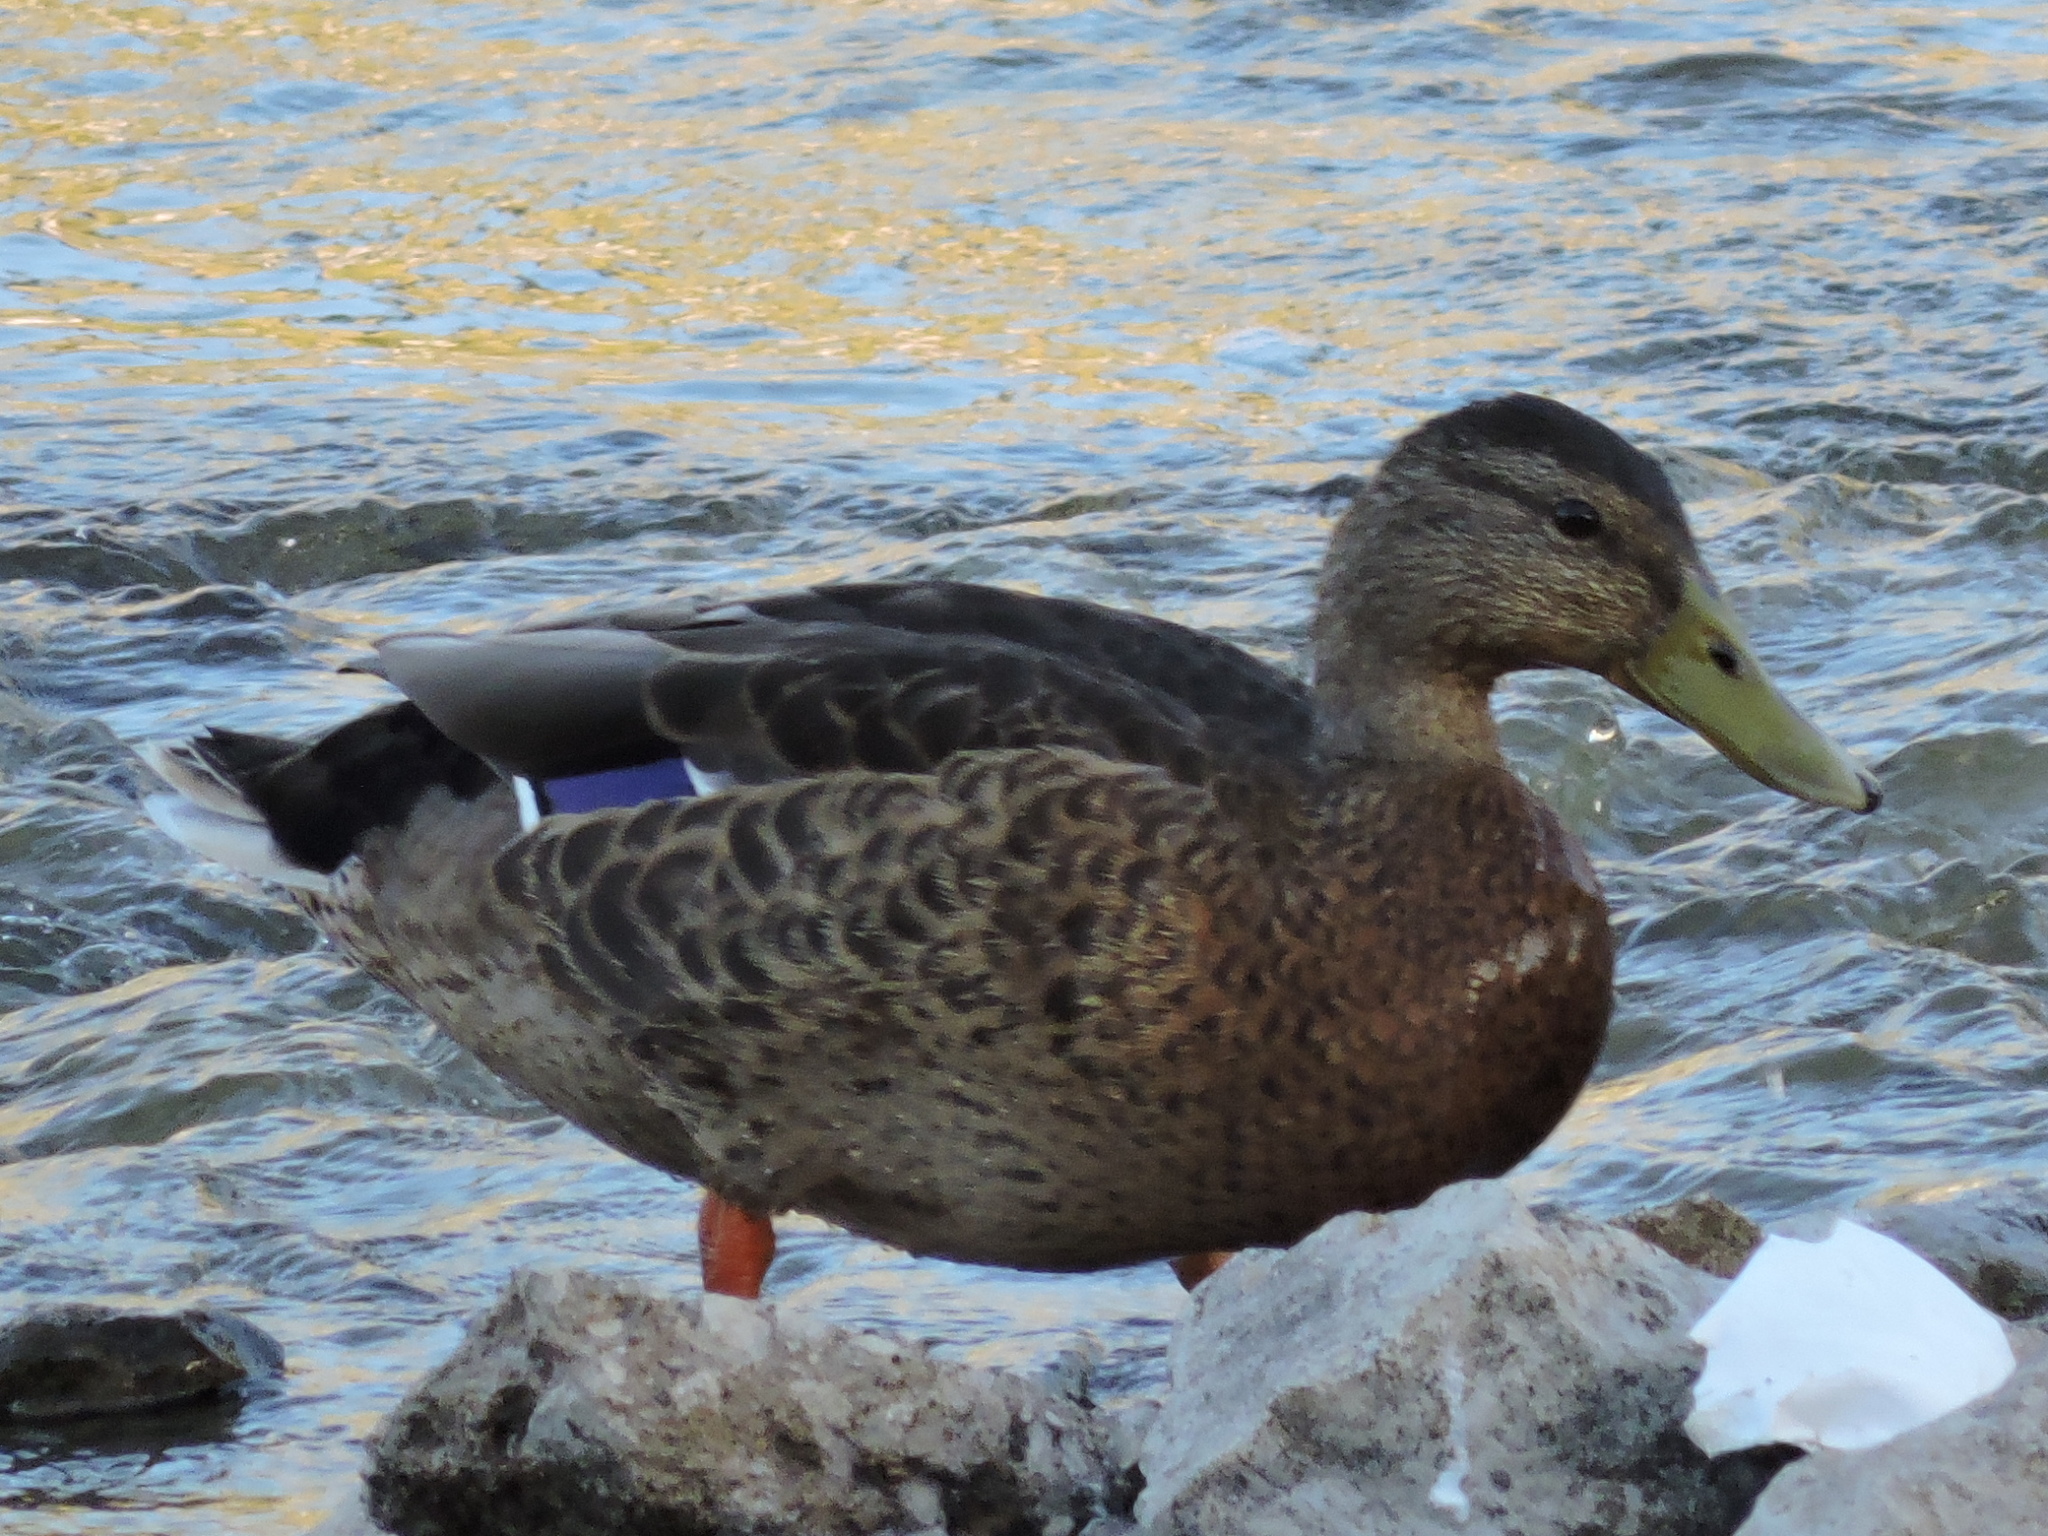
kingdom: Animalia
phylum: Chordata
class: Aves
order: Anseriformes
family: Anatidae
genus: Anas
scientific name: Anas platyrhynchos
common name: Mallard
